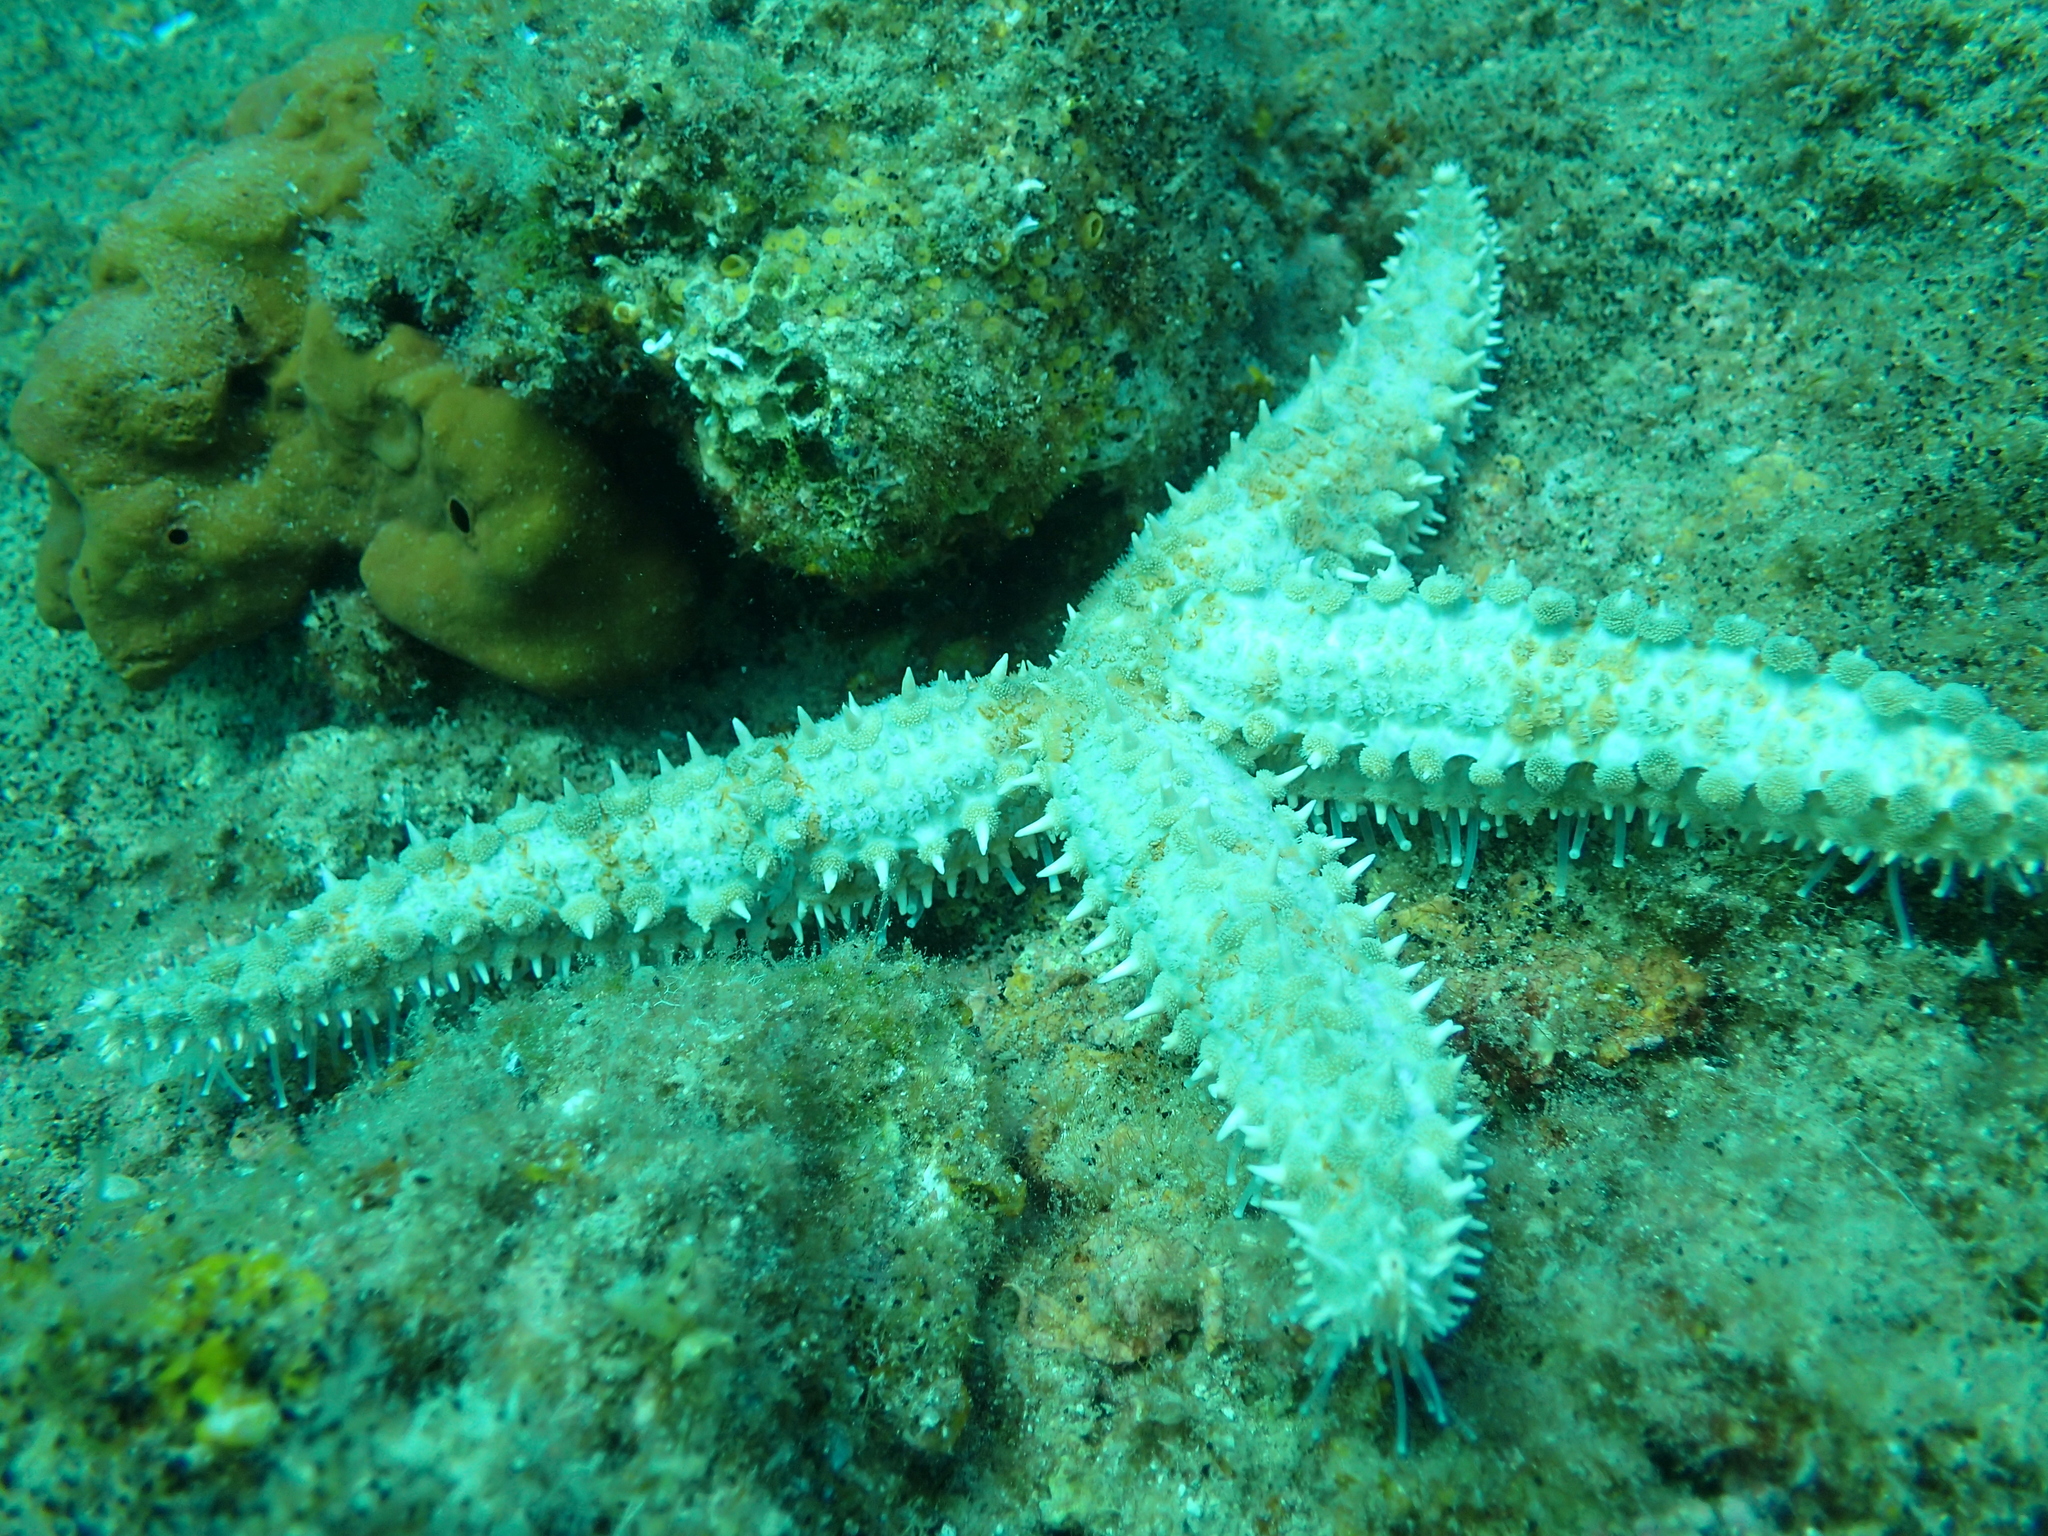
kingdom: Animalia
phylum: Echinodermata
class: Asteroidea
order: Forcipulatida
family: Asteriidae
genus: Marthasterias
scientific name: Marthasterias glacialis
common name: Spiny starfish
